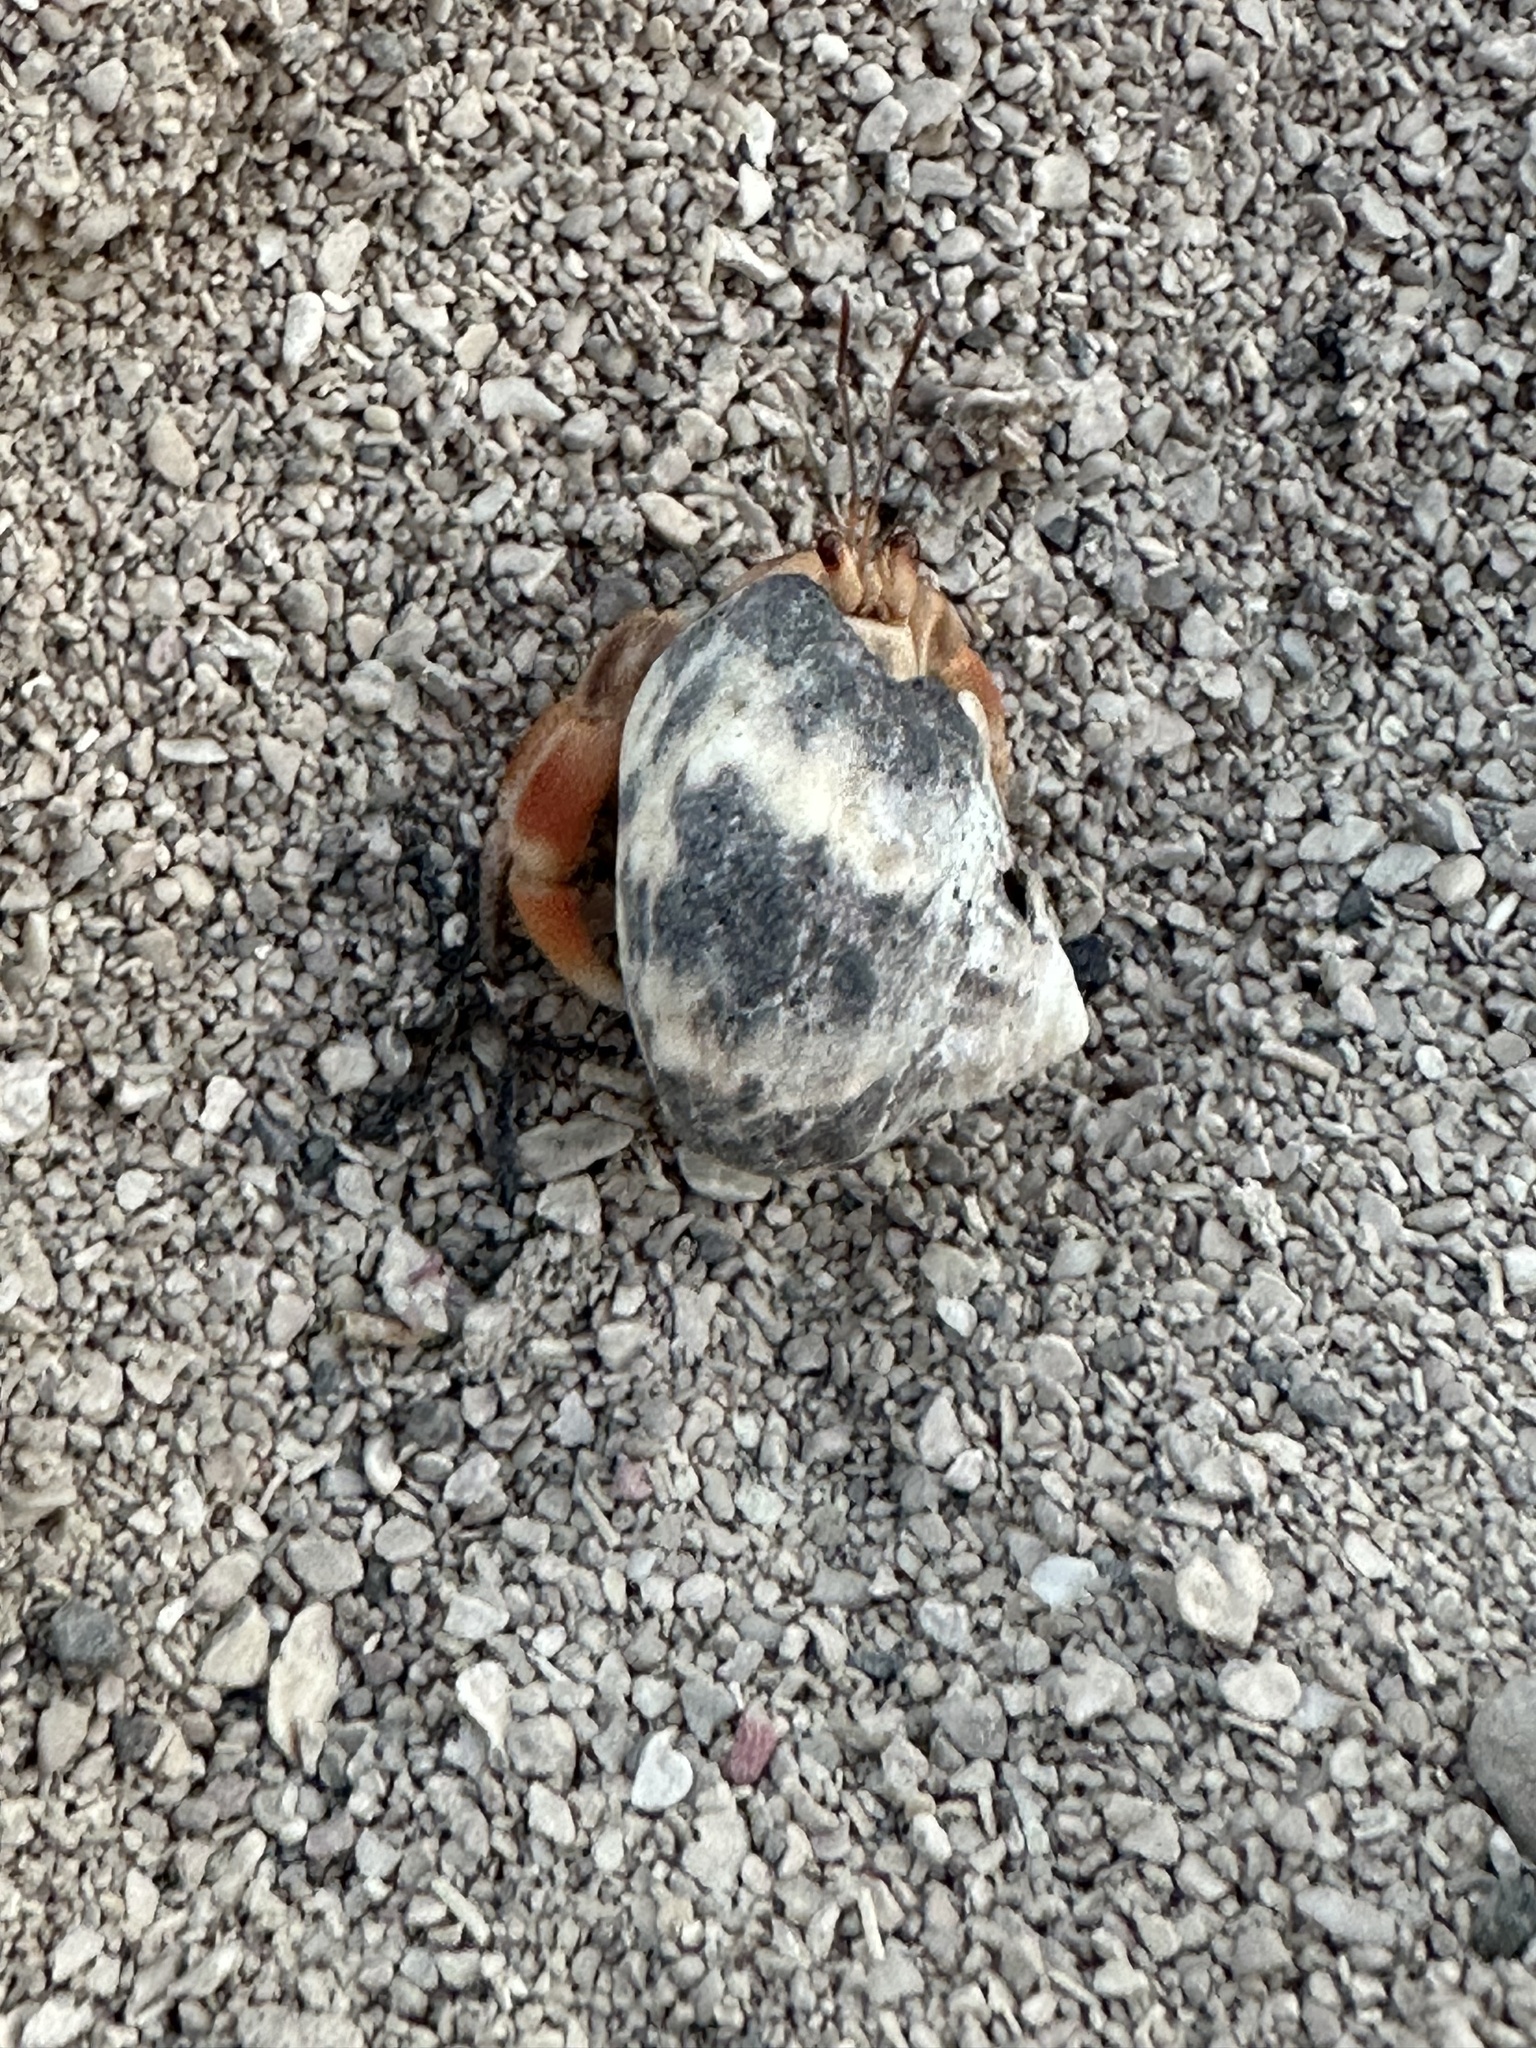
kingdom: Animalia
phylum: Arthropoda
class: Malacostraca
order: Decapoda
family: Coenobitidae
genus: Coenobita
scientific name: Coenobita clypeatus
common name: Caribbean hermit crab
